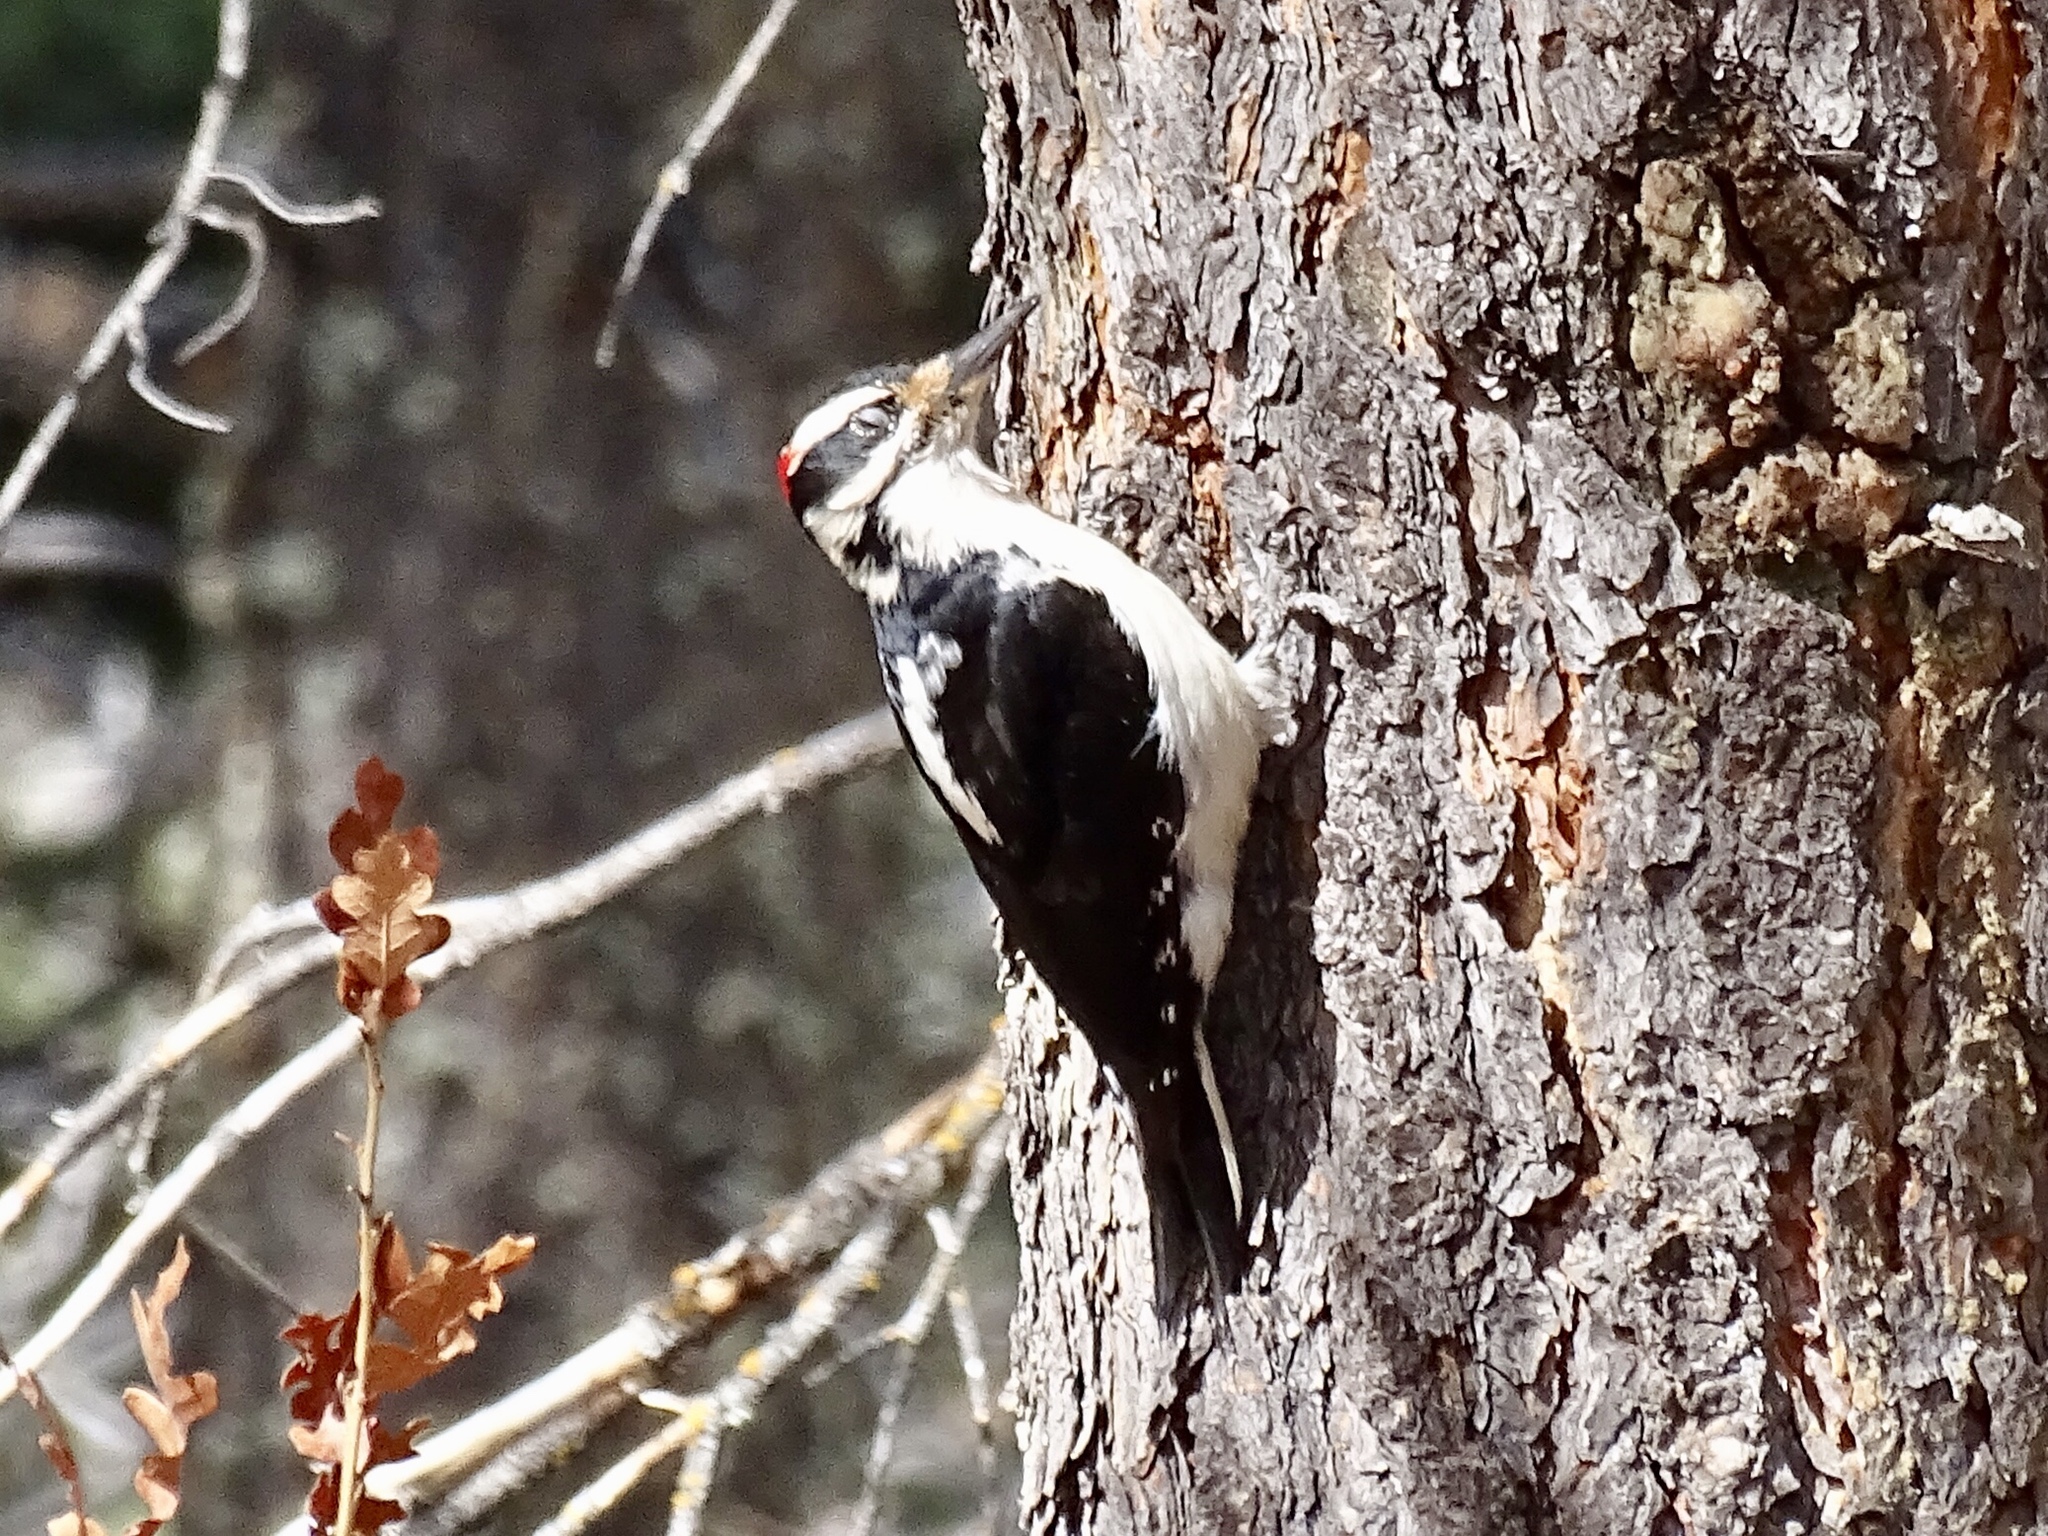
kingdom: Animalia
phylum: Chordata
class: Aves
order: Piciformes
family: Picidae
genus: Leuconotopicus
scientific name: Leuconotopicus villosus
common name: Hairy woodpecker
